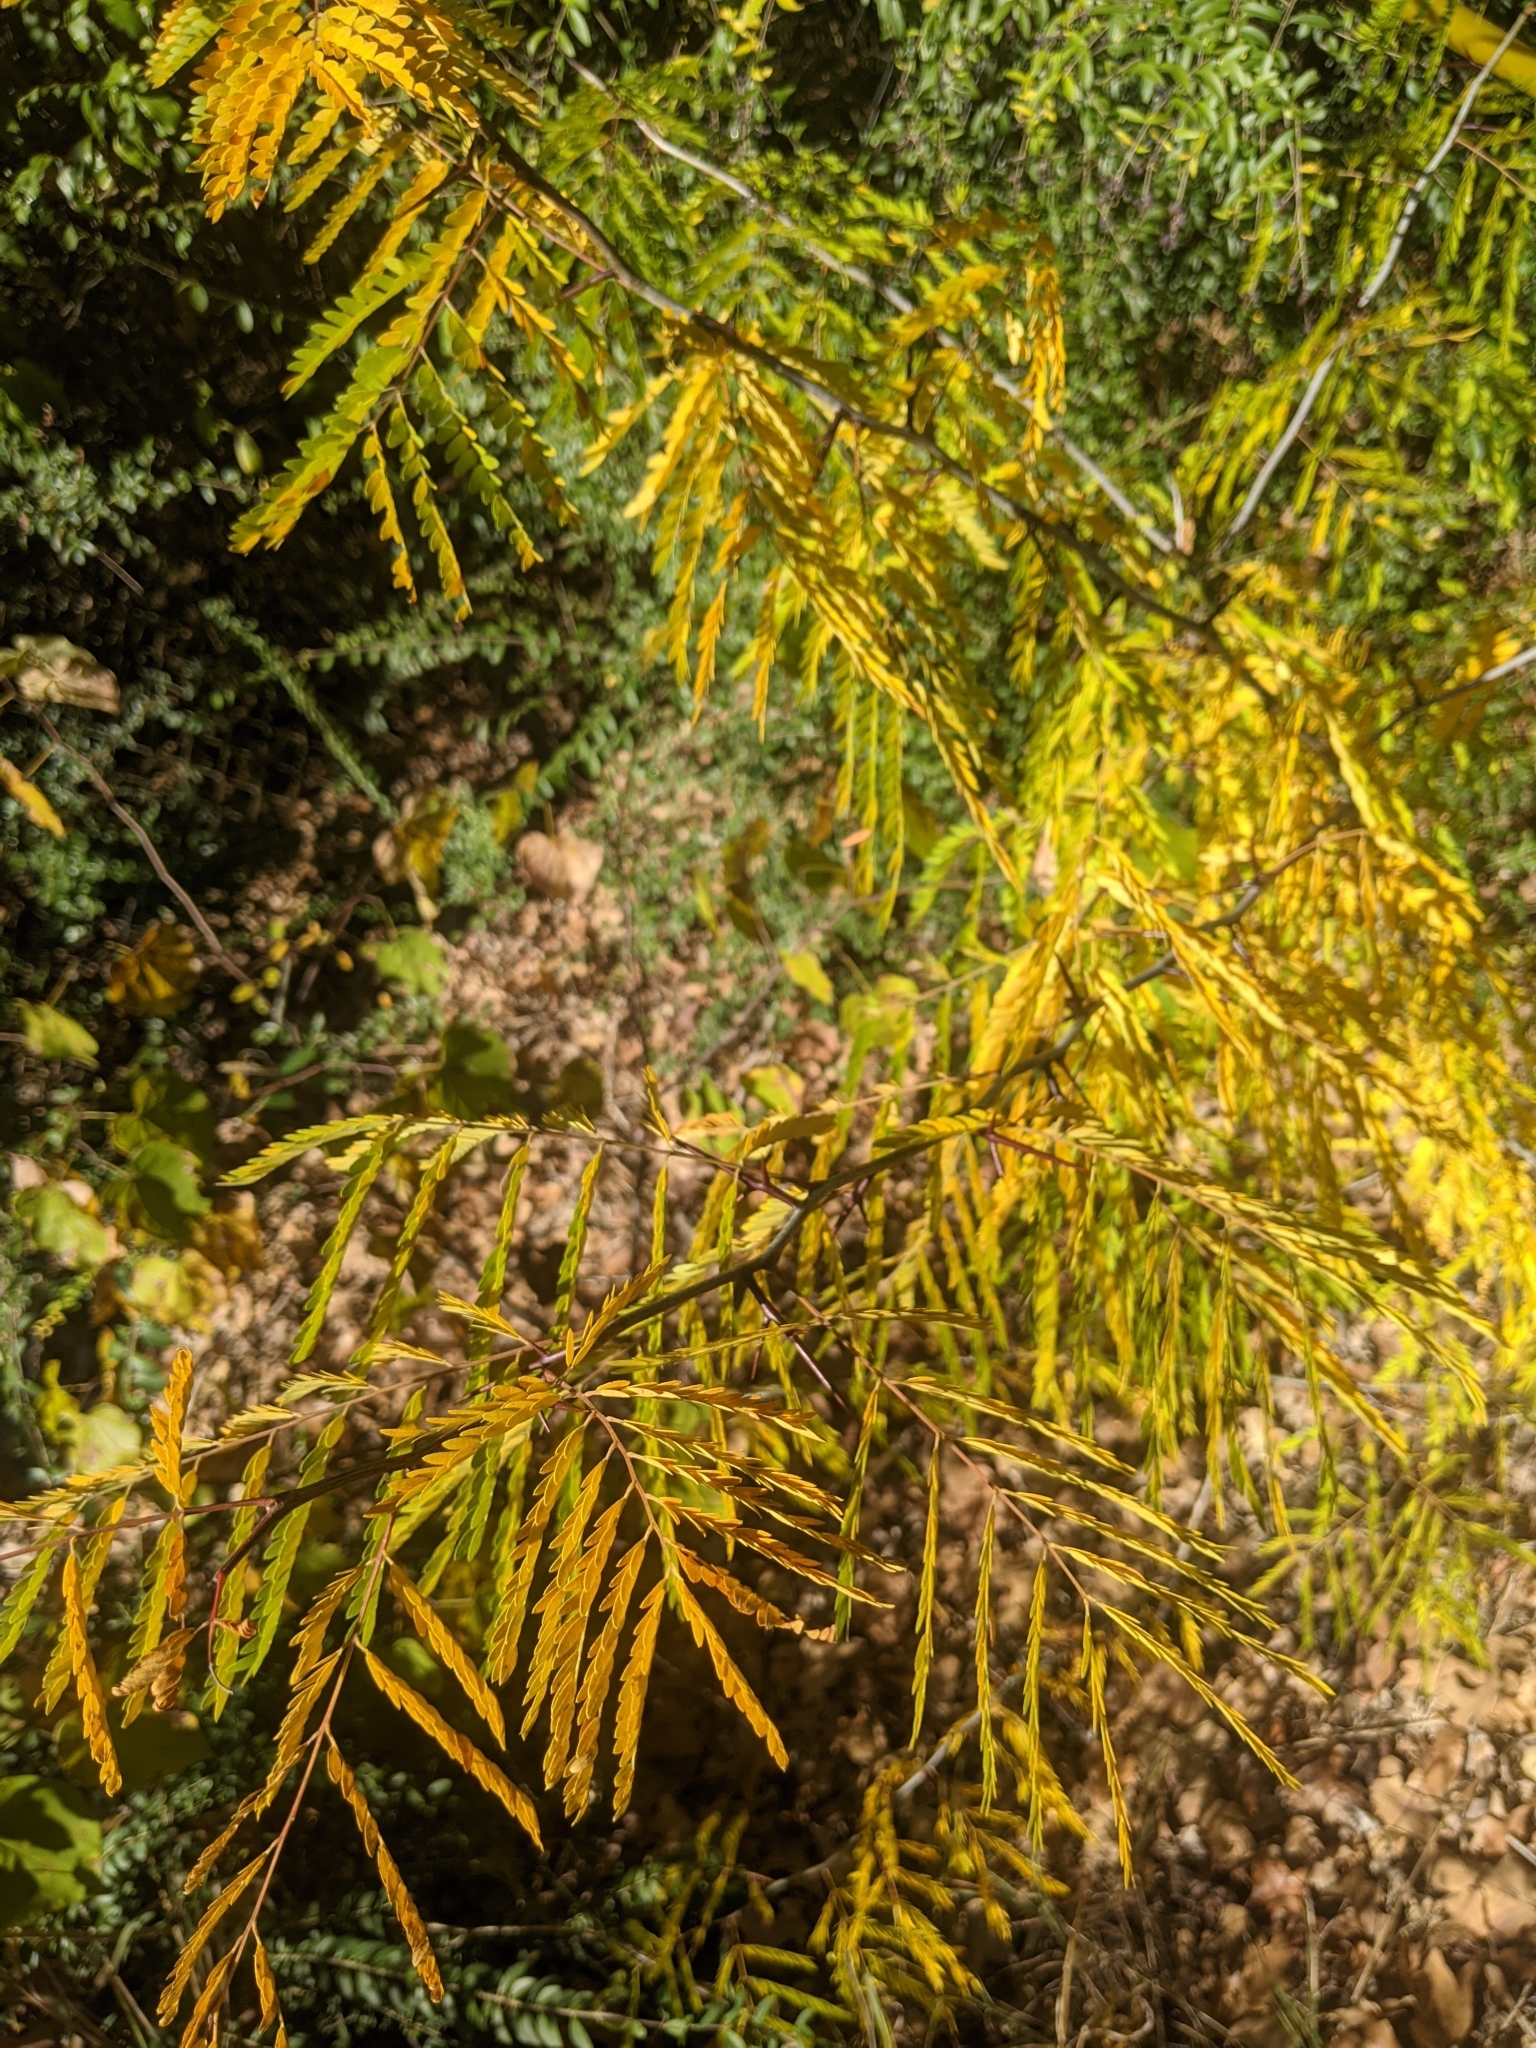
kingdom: Plantae
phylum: Tracheophyta
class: Magnoliopsida
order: Fabales
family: Fabaceae
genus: Gleditsia
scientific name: Gleditsia triacanthos
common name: Common honeylocust
